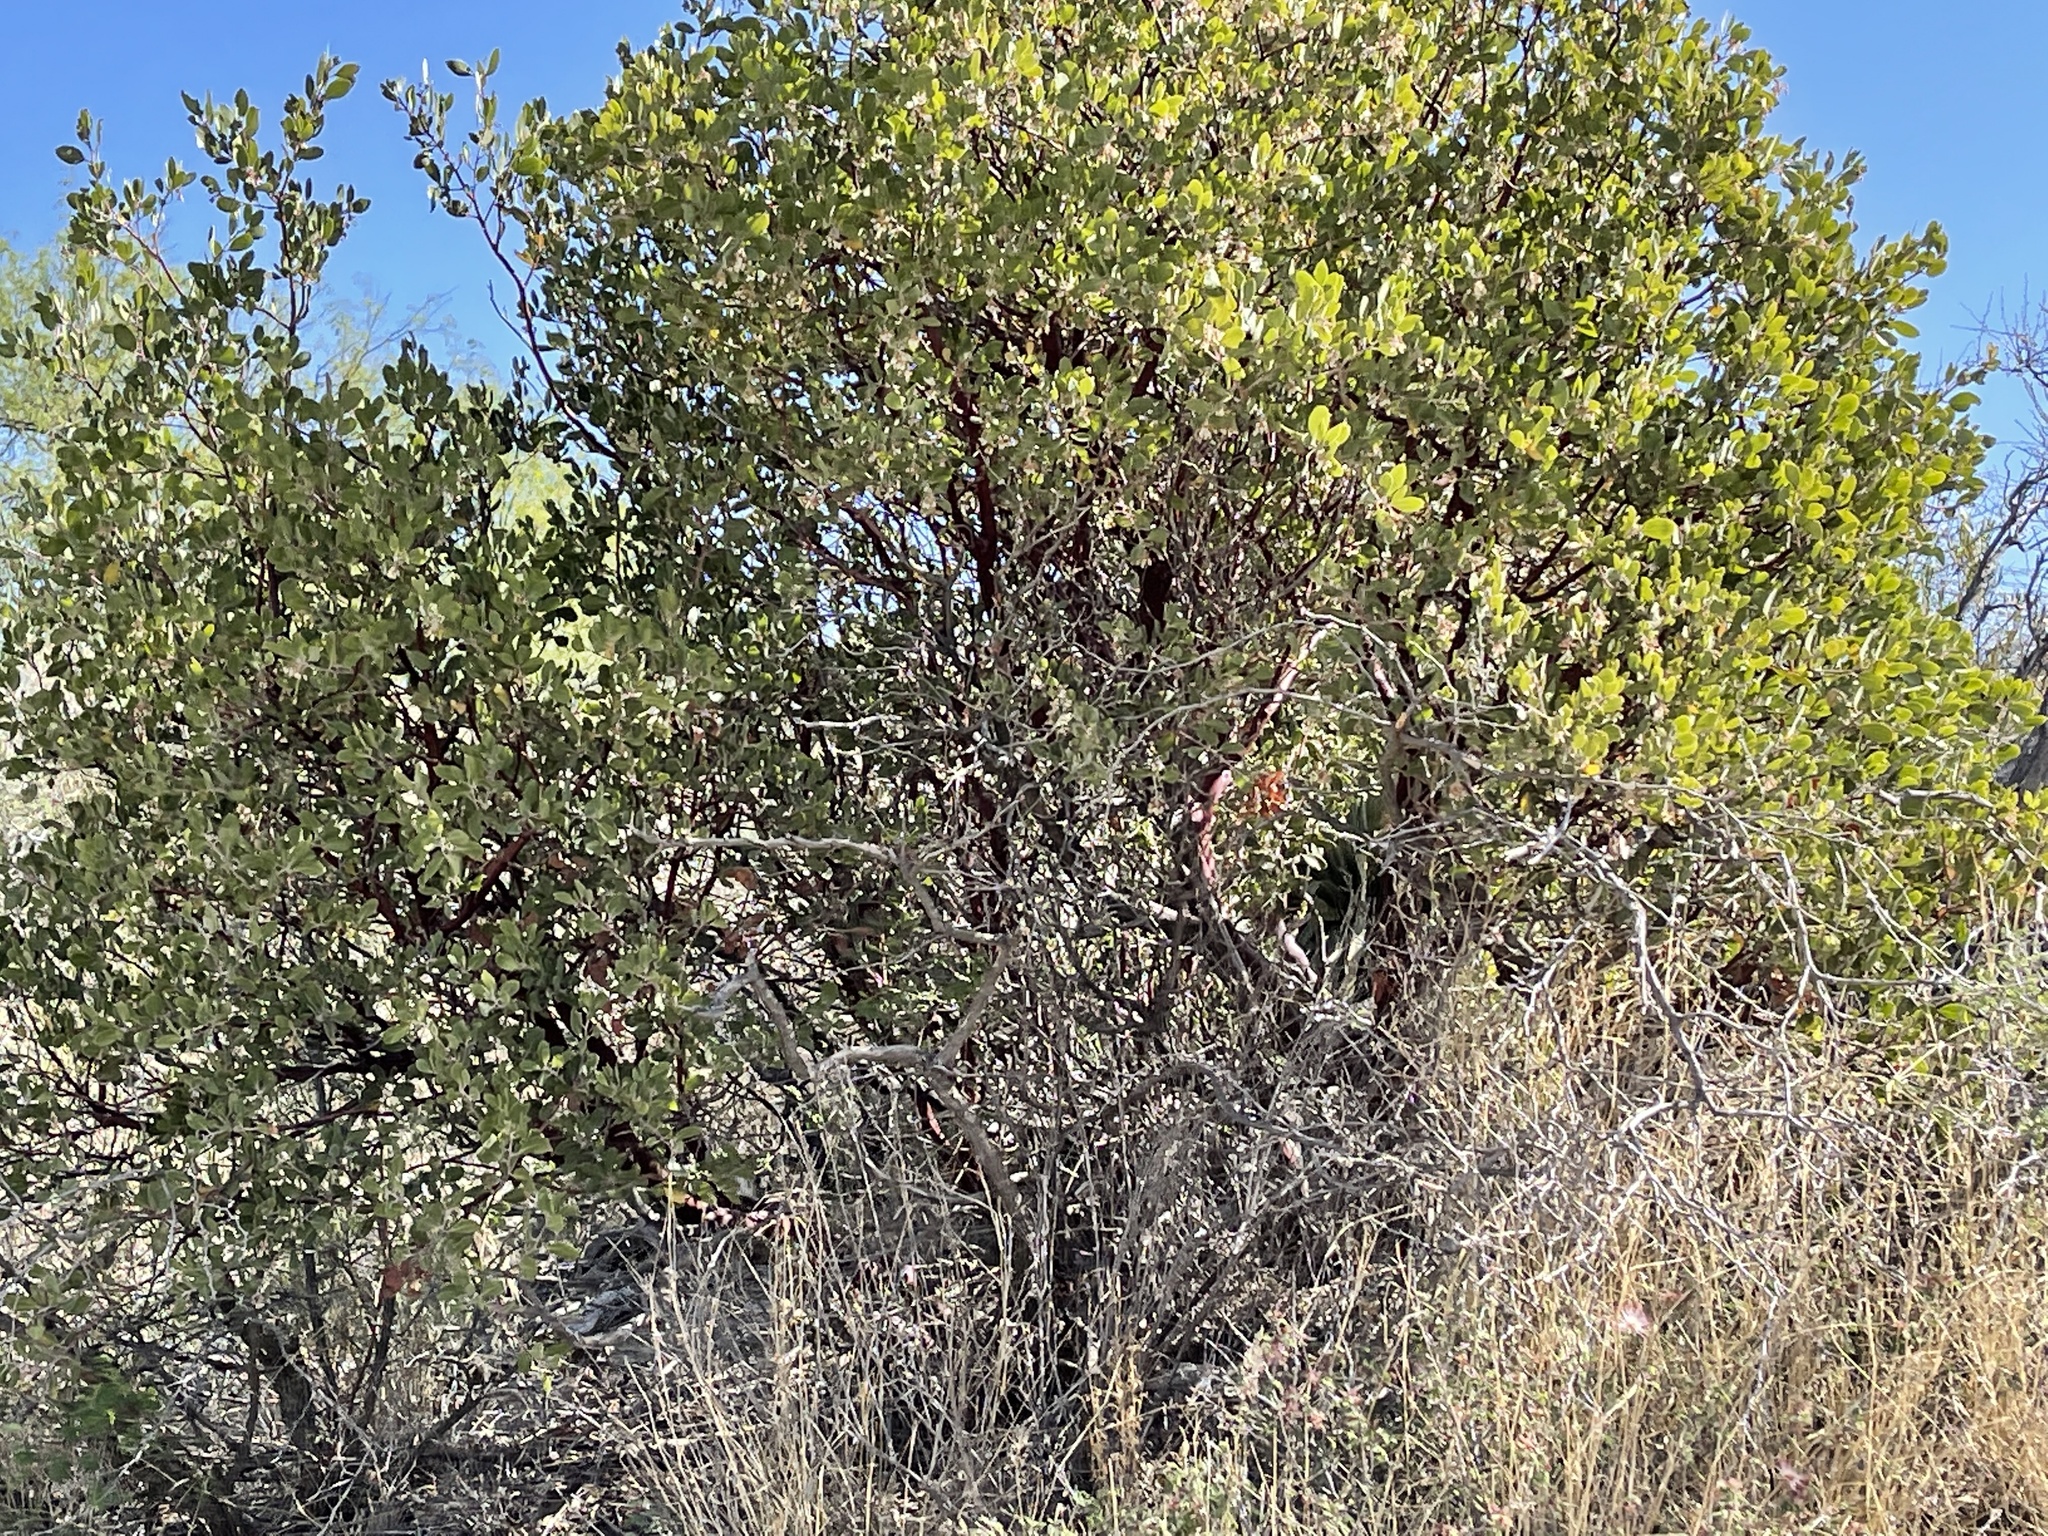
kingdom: Plantae
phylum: Tracheophyta
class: Magnoliopsida
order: Ericales
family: Ericaceae
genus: Arctostaphylos
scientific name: Arctostaphylos pungens
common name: Mexican manzanita
